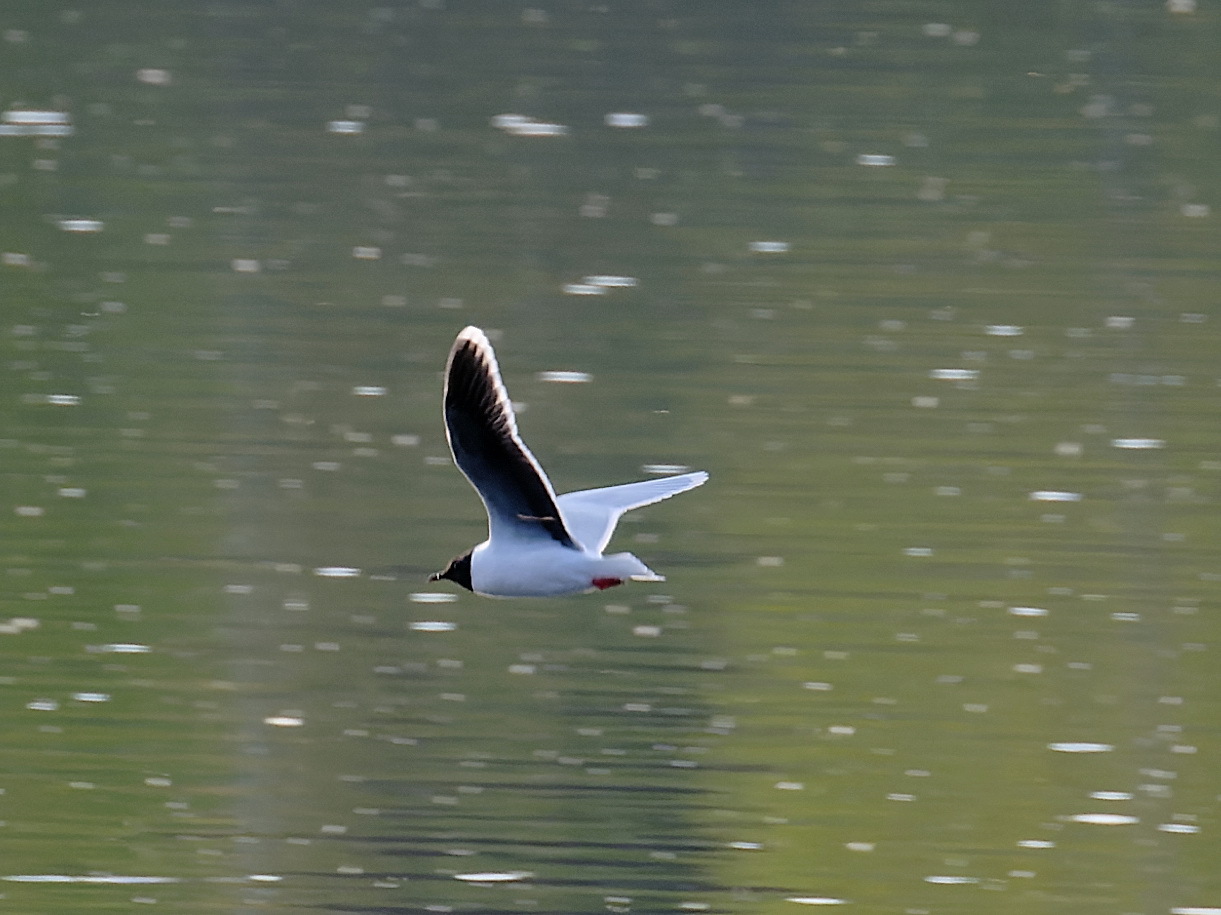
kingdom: Animalia
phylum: Chordata
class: Aves
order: Charadriiformes
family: Laridae
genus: Hydrocoloeus
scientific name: Hydrocoloeus minutus
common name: Little gull
